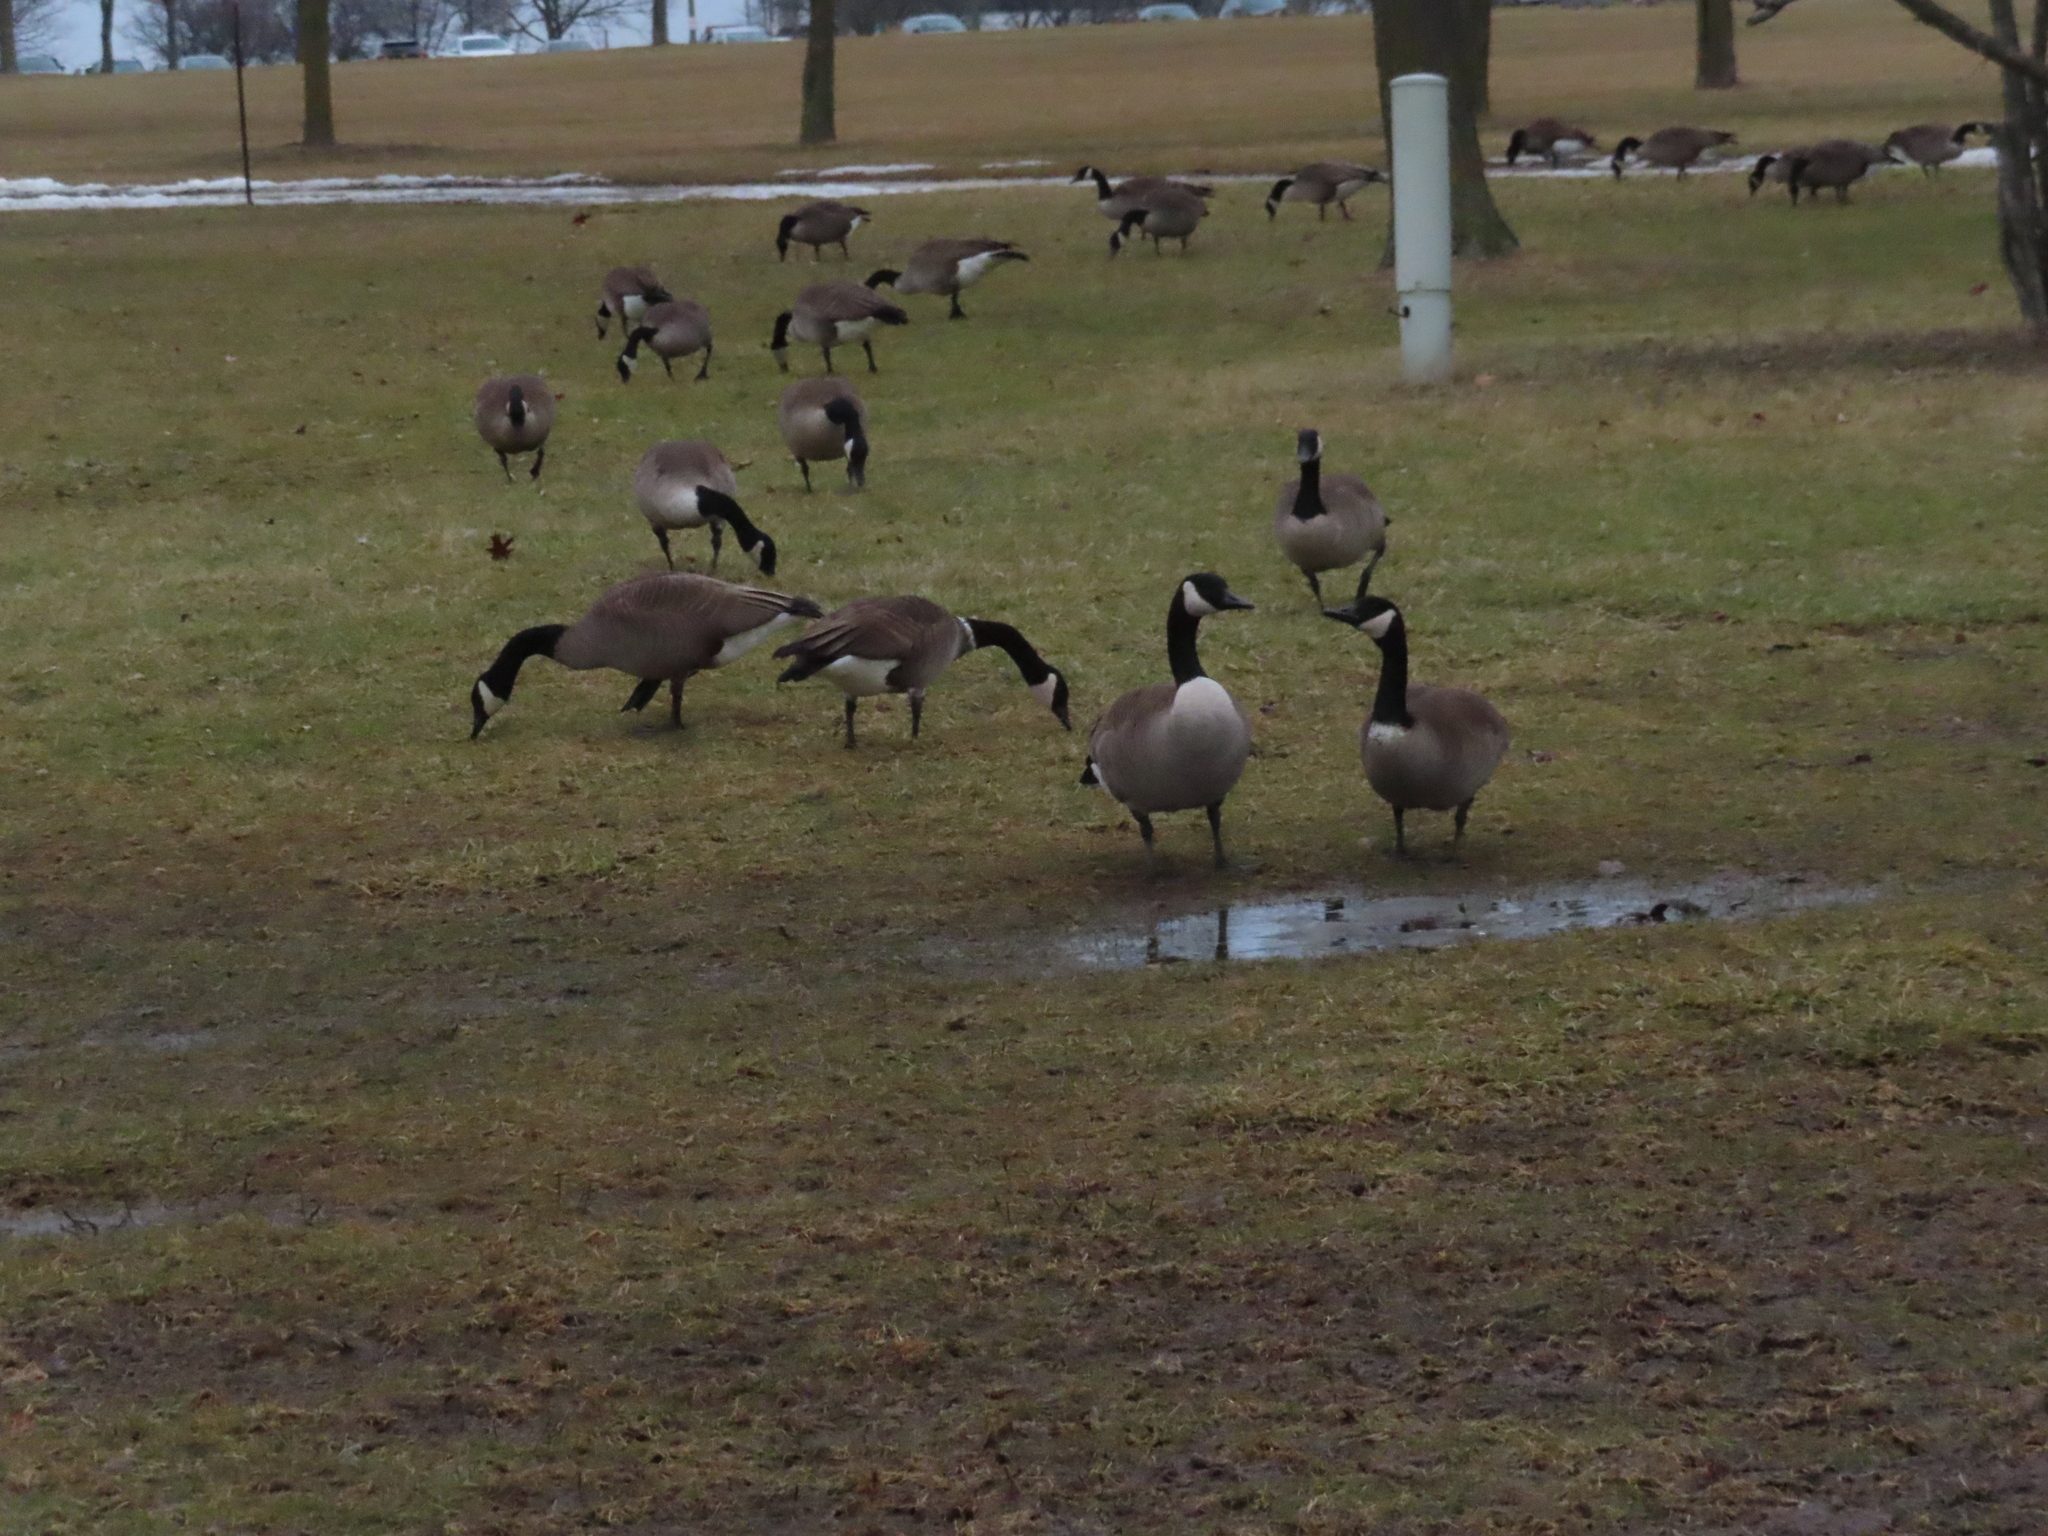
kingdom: Animalia
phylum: Chordata
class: Aves
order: Anseriformes
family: Anatidae
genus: Branta
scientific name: Branta canadensis
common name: Canada goose
